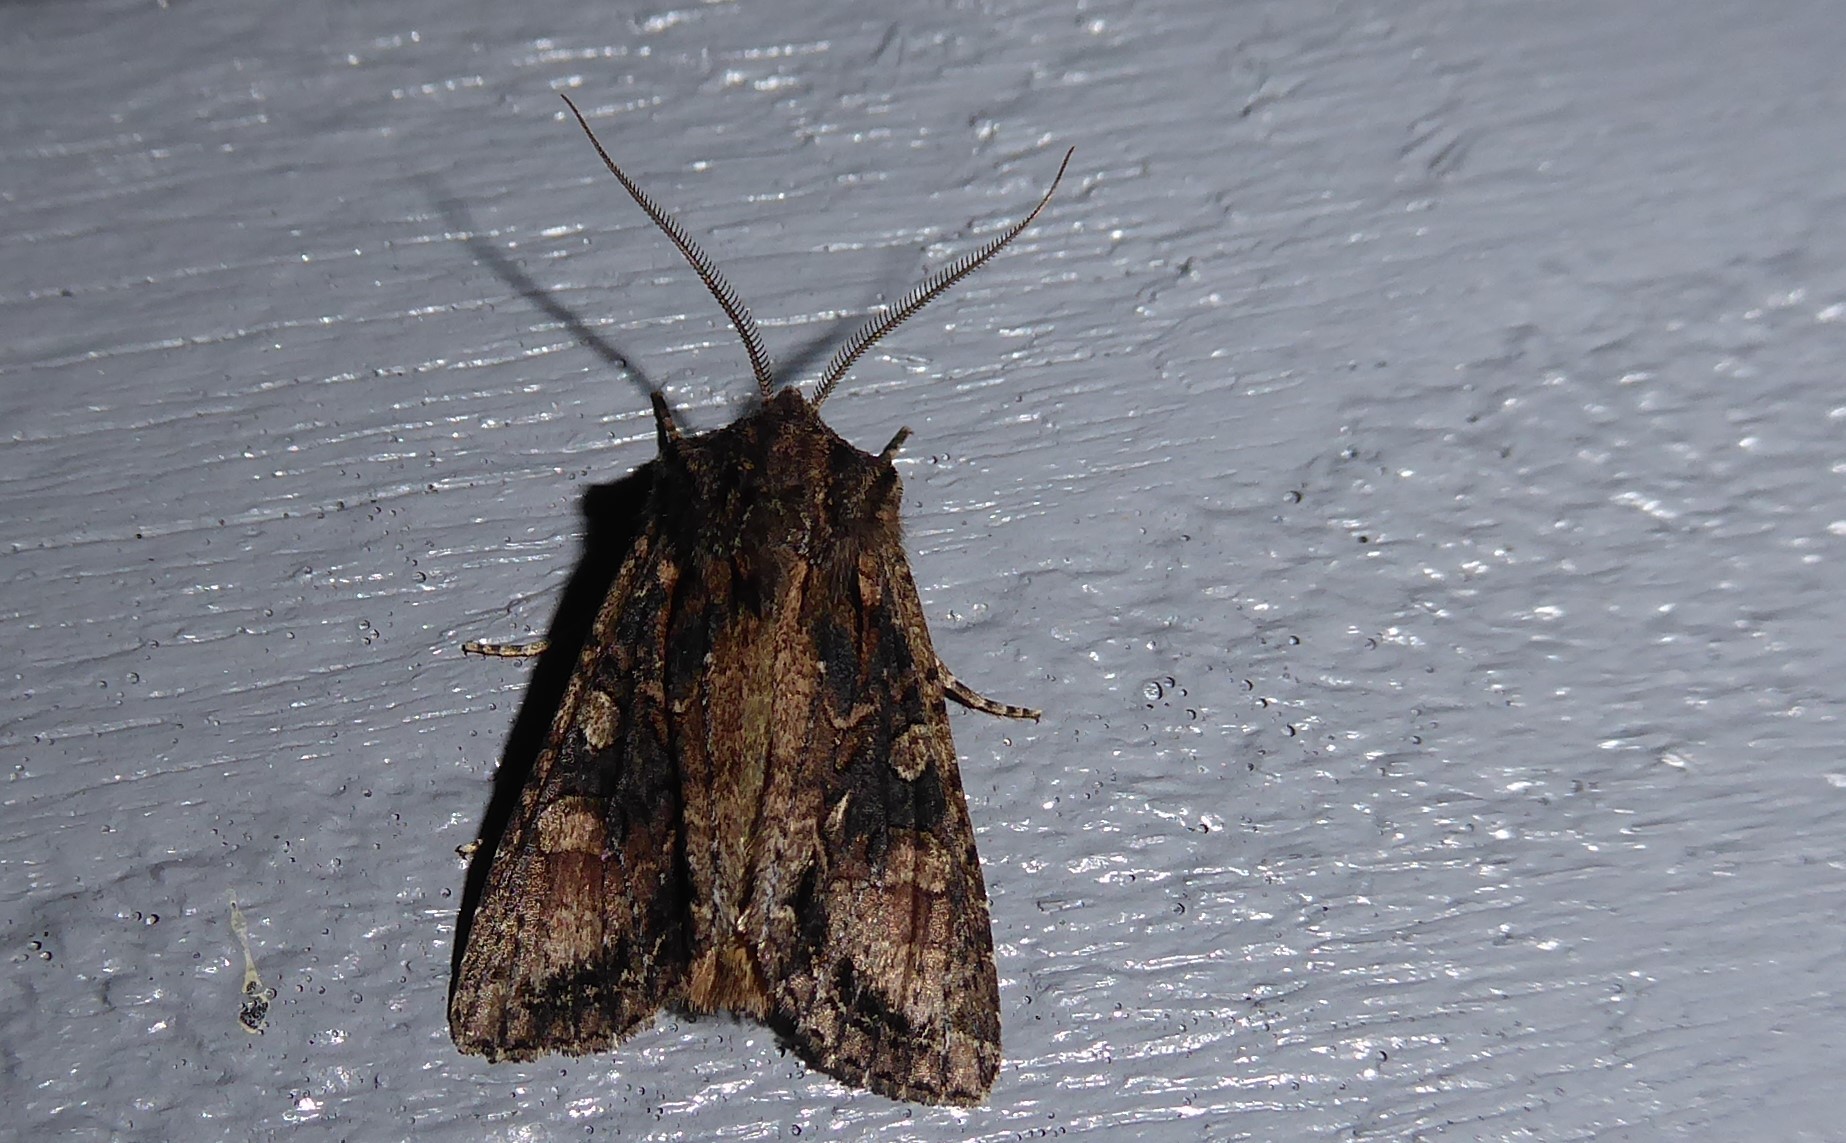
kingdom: Animalia
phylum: Arthropoda
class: Insecta
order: Lepidoptera
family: Noctuidae
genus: Ichneutica
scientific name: Ichneutica mutans
